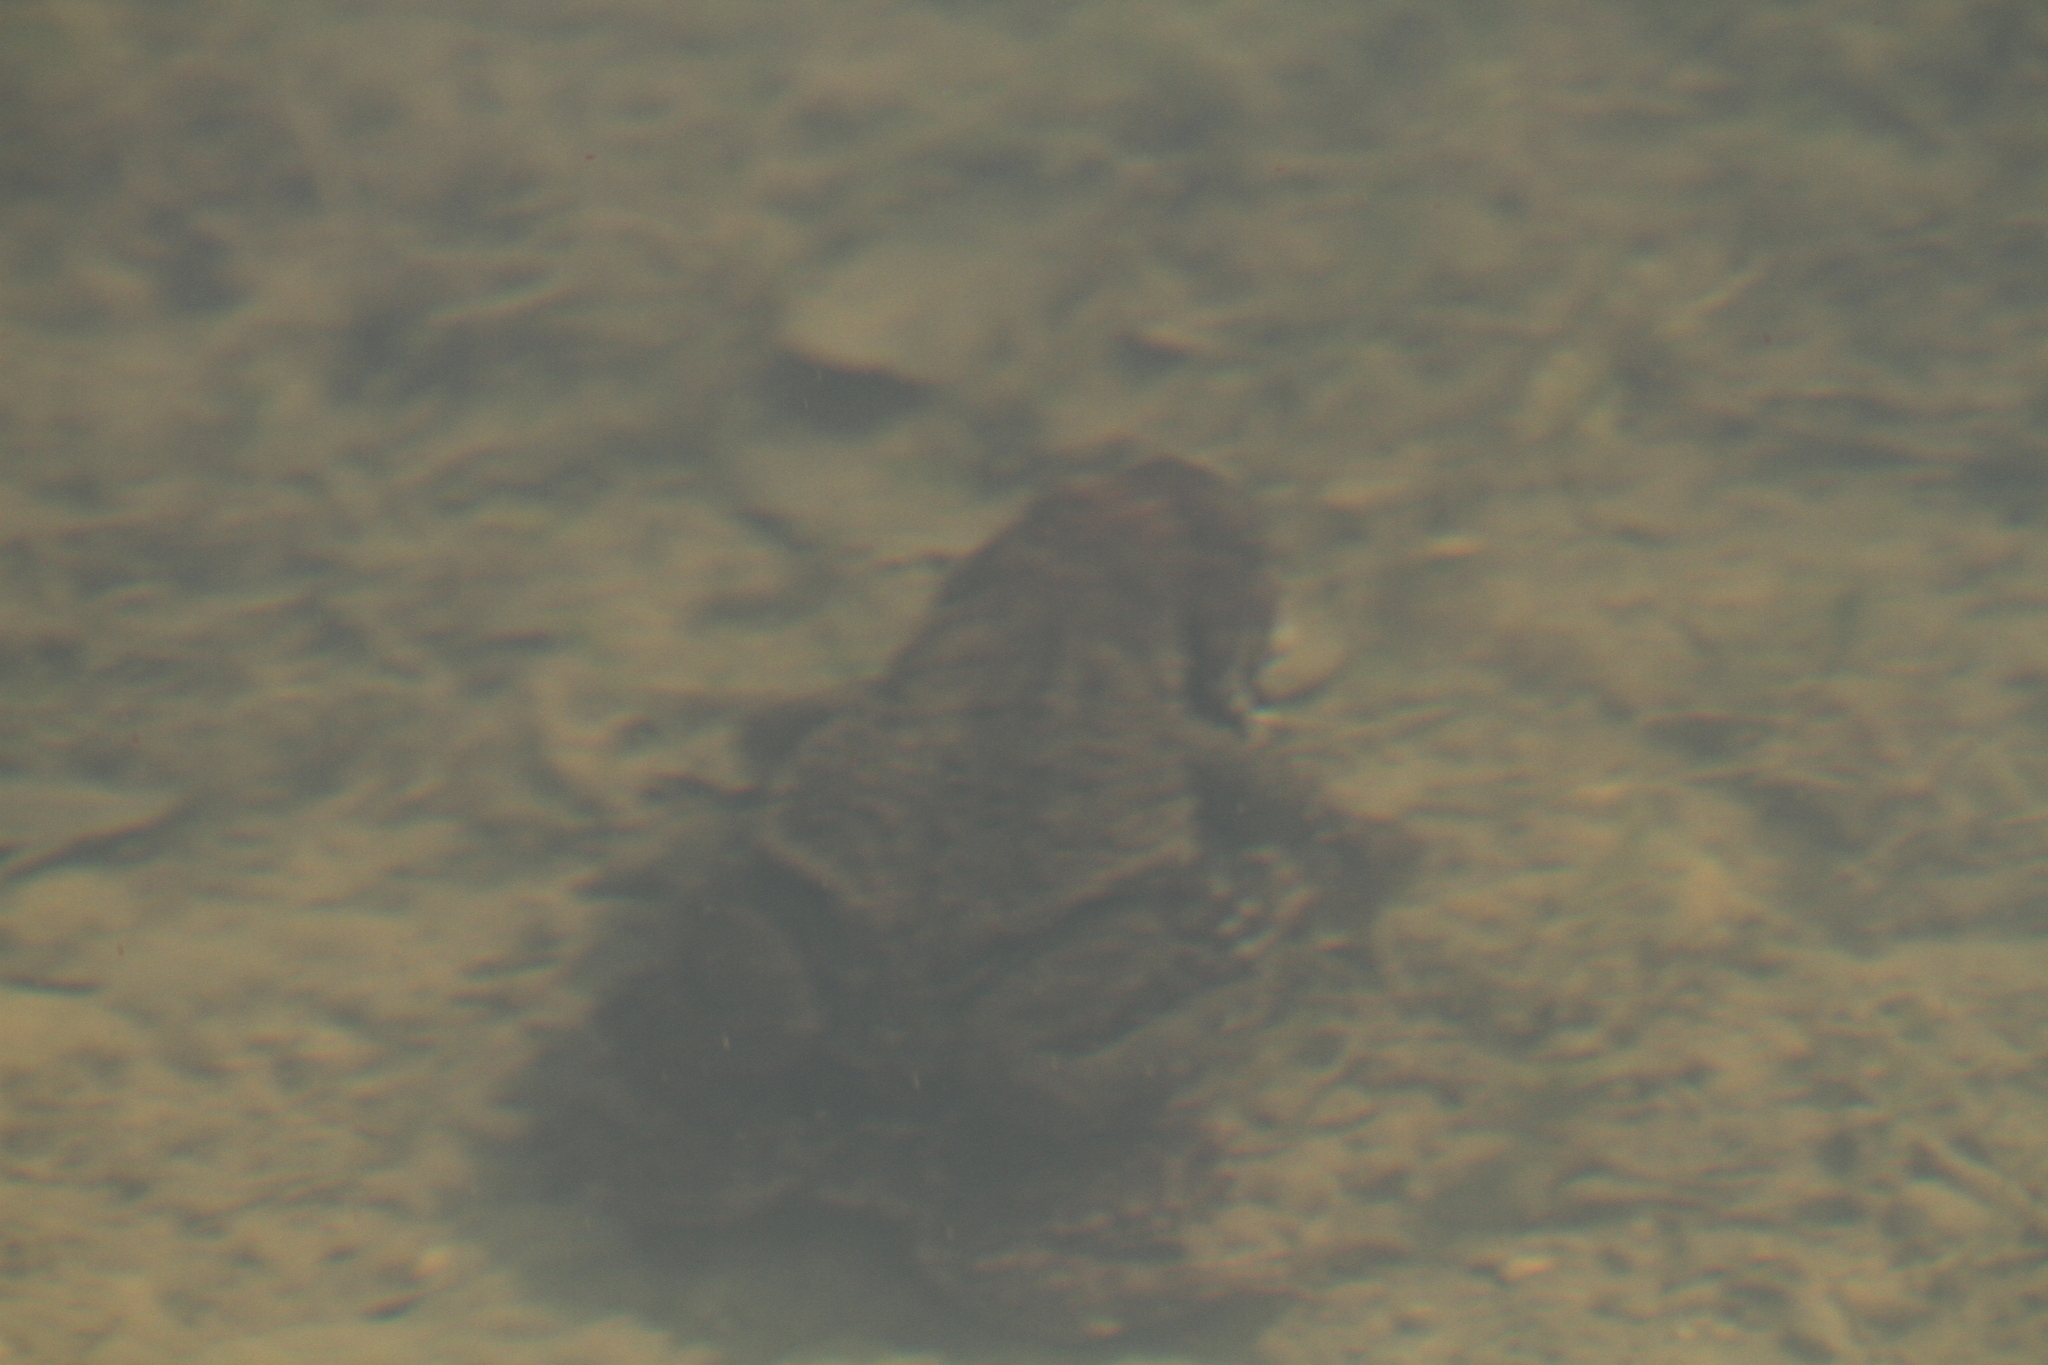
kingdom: Animalia
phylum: Chordata
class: Amphibia
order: Anura
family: Bufonidae
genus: Bufo
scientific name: Bufo spinosus
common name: Western common toad
